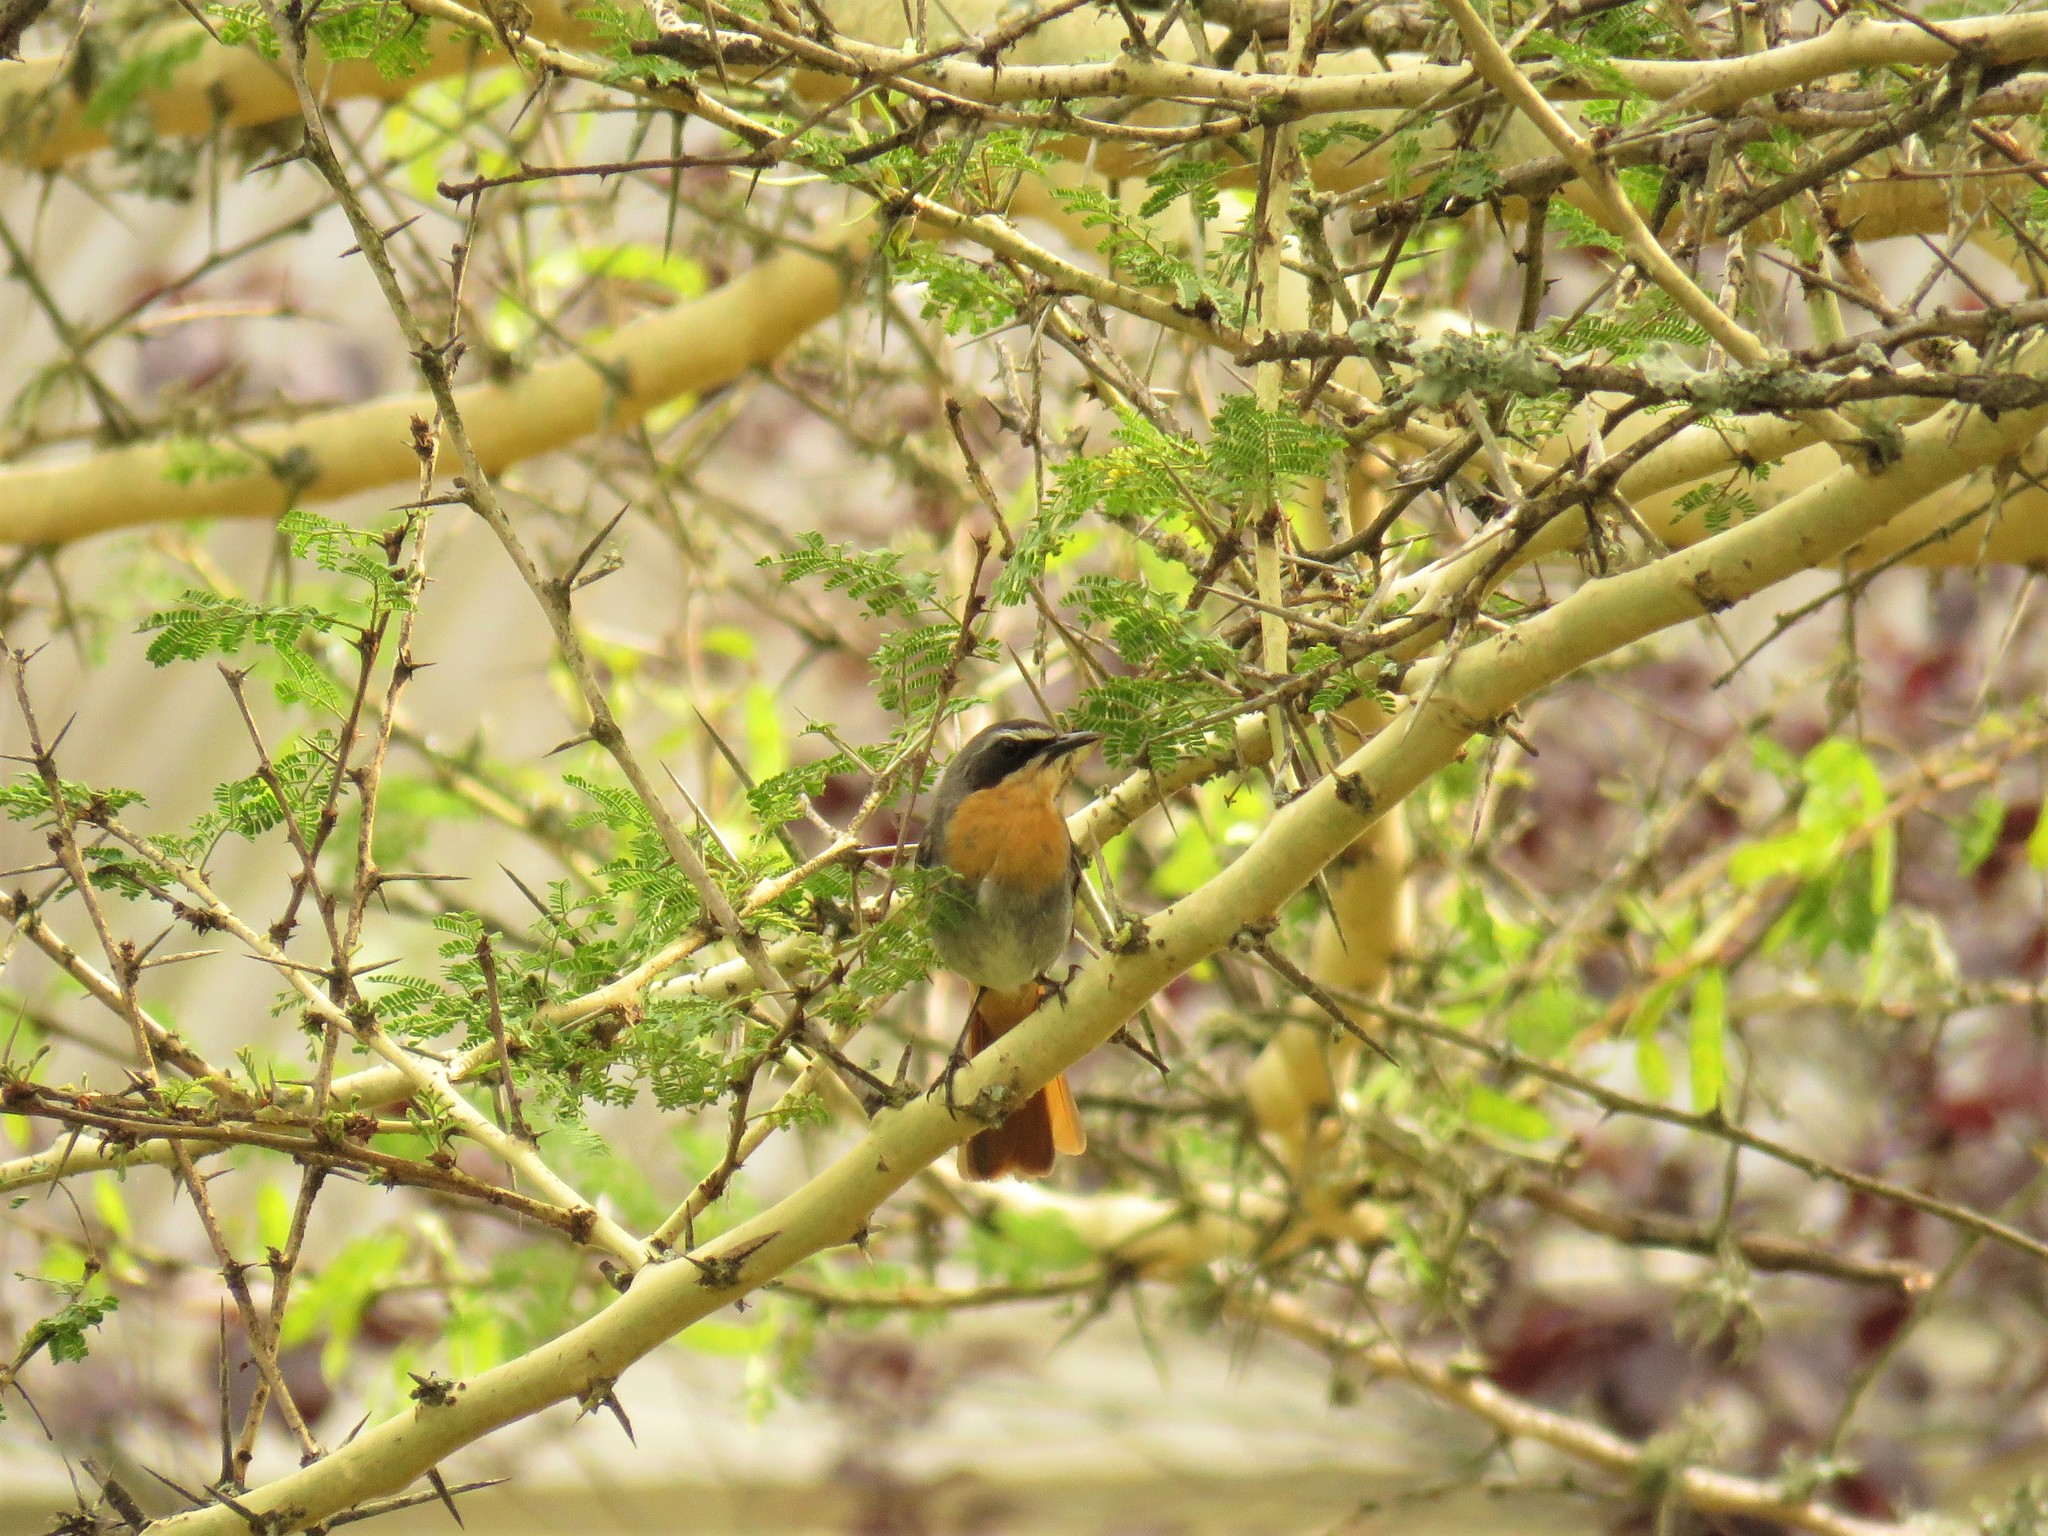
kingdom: Animalia
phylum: Chordata
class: Aves
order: Passeriformes
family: Muscicapidae
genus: Cossypha
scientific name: Cossypha caffra
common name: Cape robin-chat
